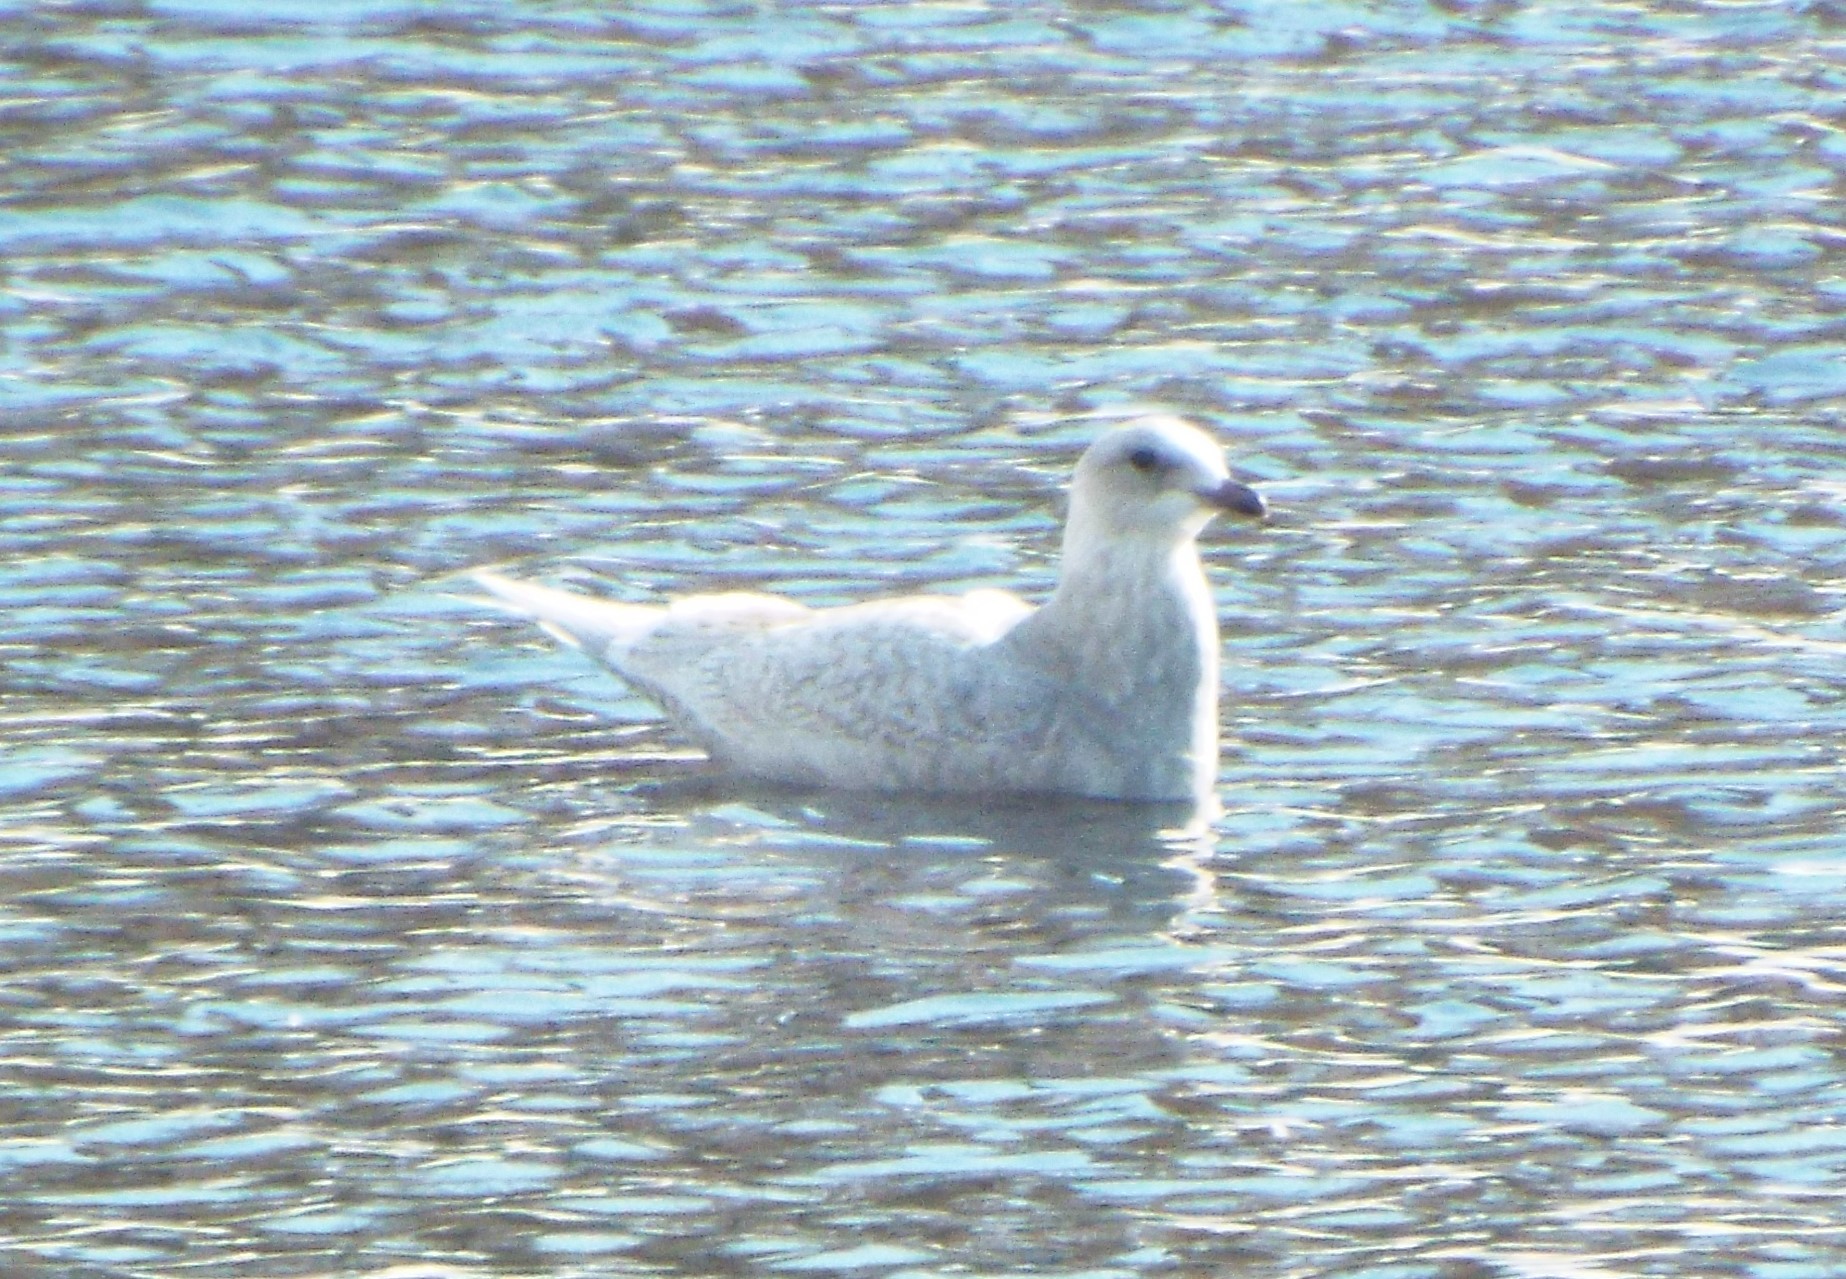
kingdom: Animalia
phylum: Chordata
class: Aves
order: Charadriiformes
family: Laridae
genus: Larus
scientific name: Larus glaucoides
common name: Iceland gull
